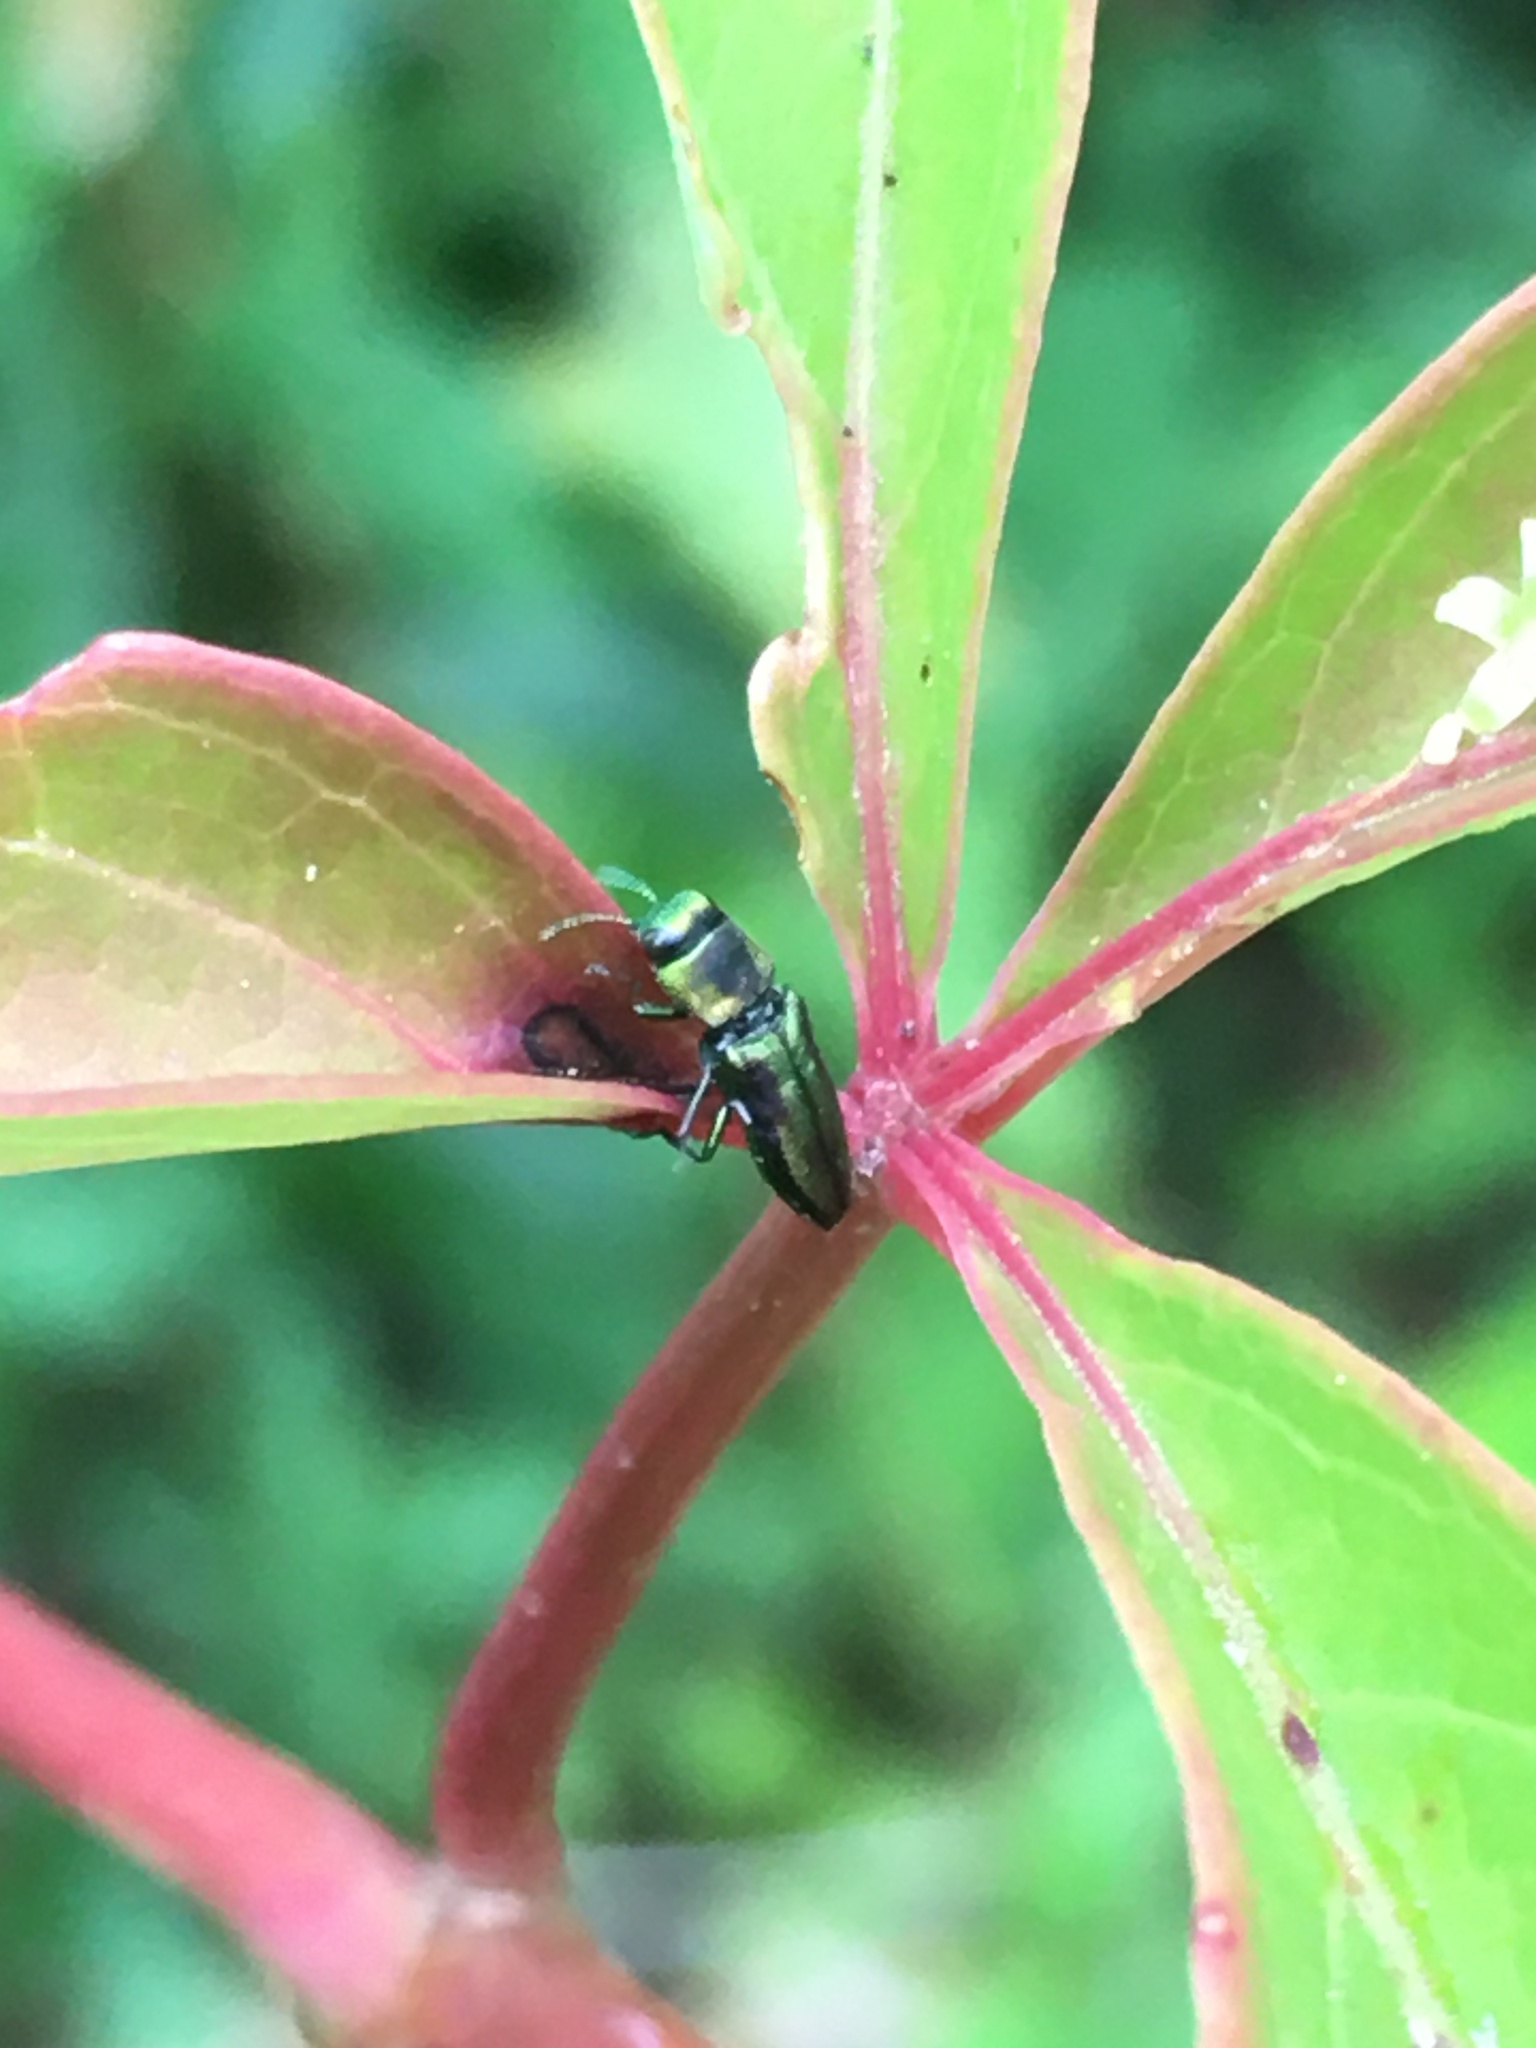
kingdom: Animalia
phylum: Arthropoda
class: Insecta
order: Coleoptera
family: Buprestidae
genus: Anthaxia
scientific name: Anthaxia quercata
